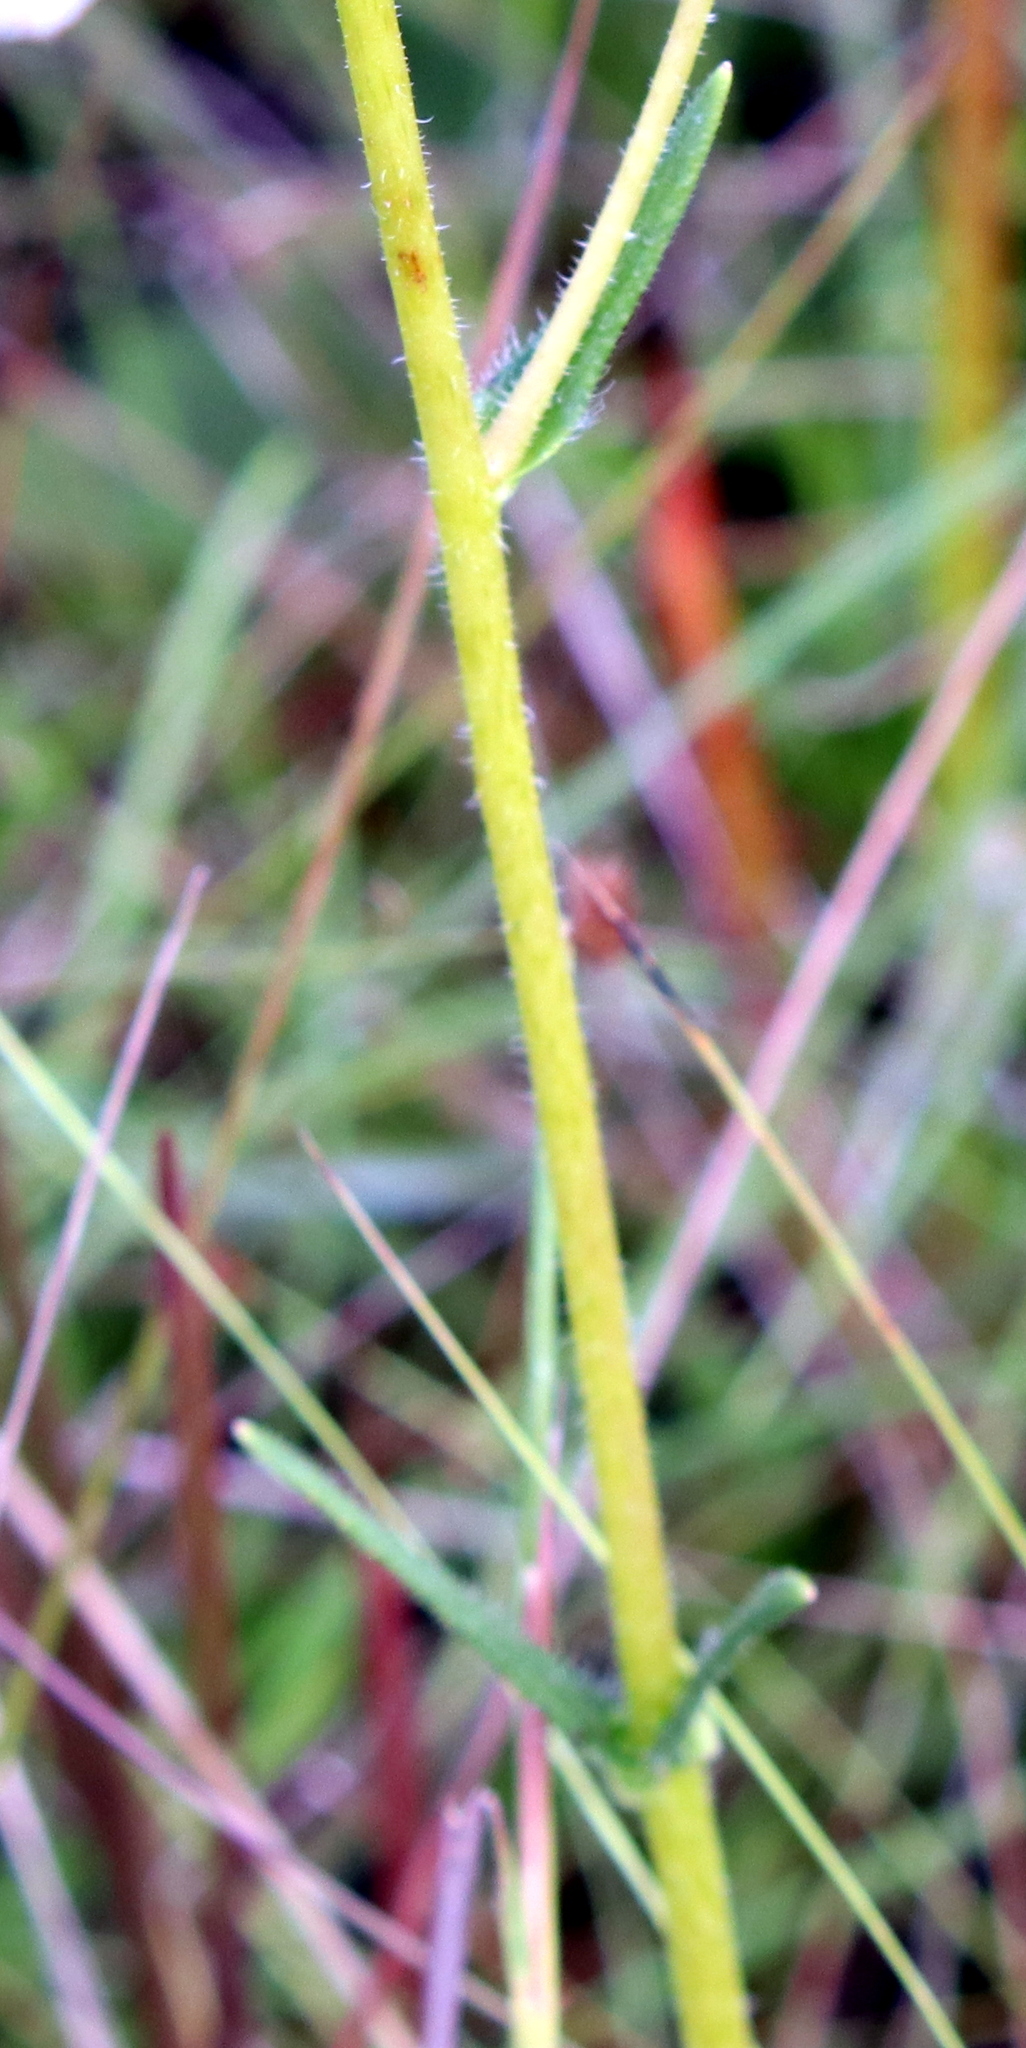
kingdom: Plantae
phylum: Tracheophyta
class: Magnoliopsida
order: Asterales
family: Asteraceae
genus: Helianthus
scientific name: Helianthus heterophyllus
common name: Wetland sunflower
